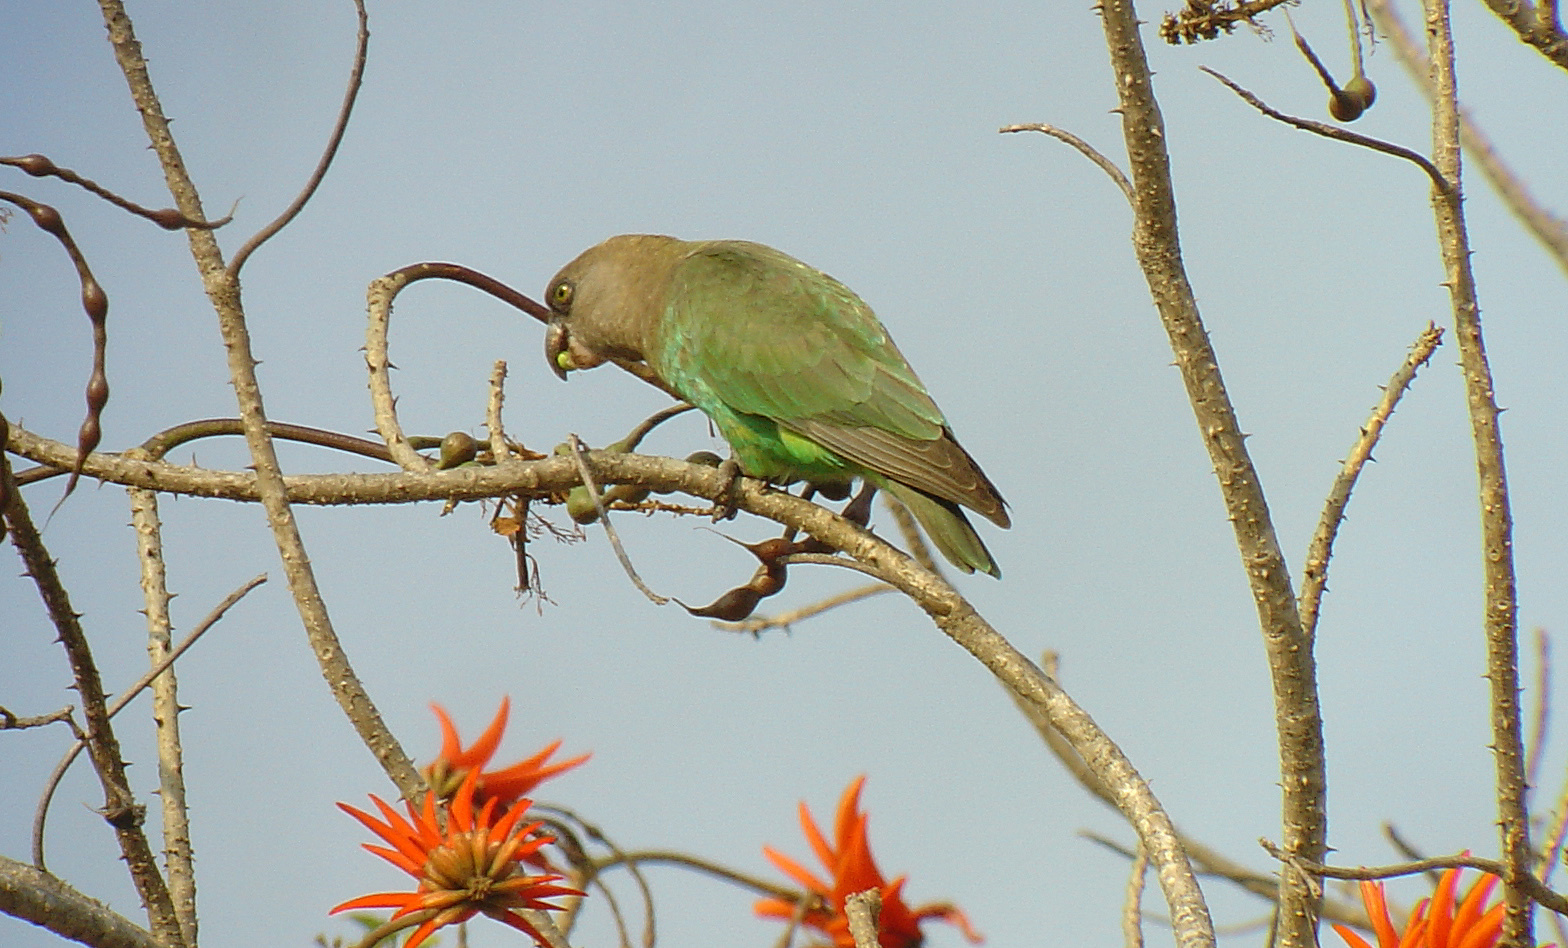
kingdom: Animalia
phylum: Chordata
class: Aves
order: Psittaciformes
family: Psittacidae
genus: Poicephalus
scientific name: Poicephalus cryptoxanthus
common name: Brown-headed parrot
